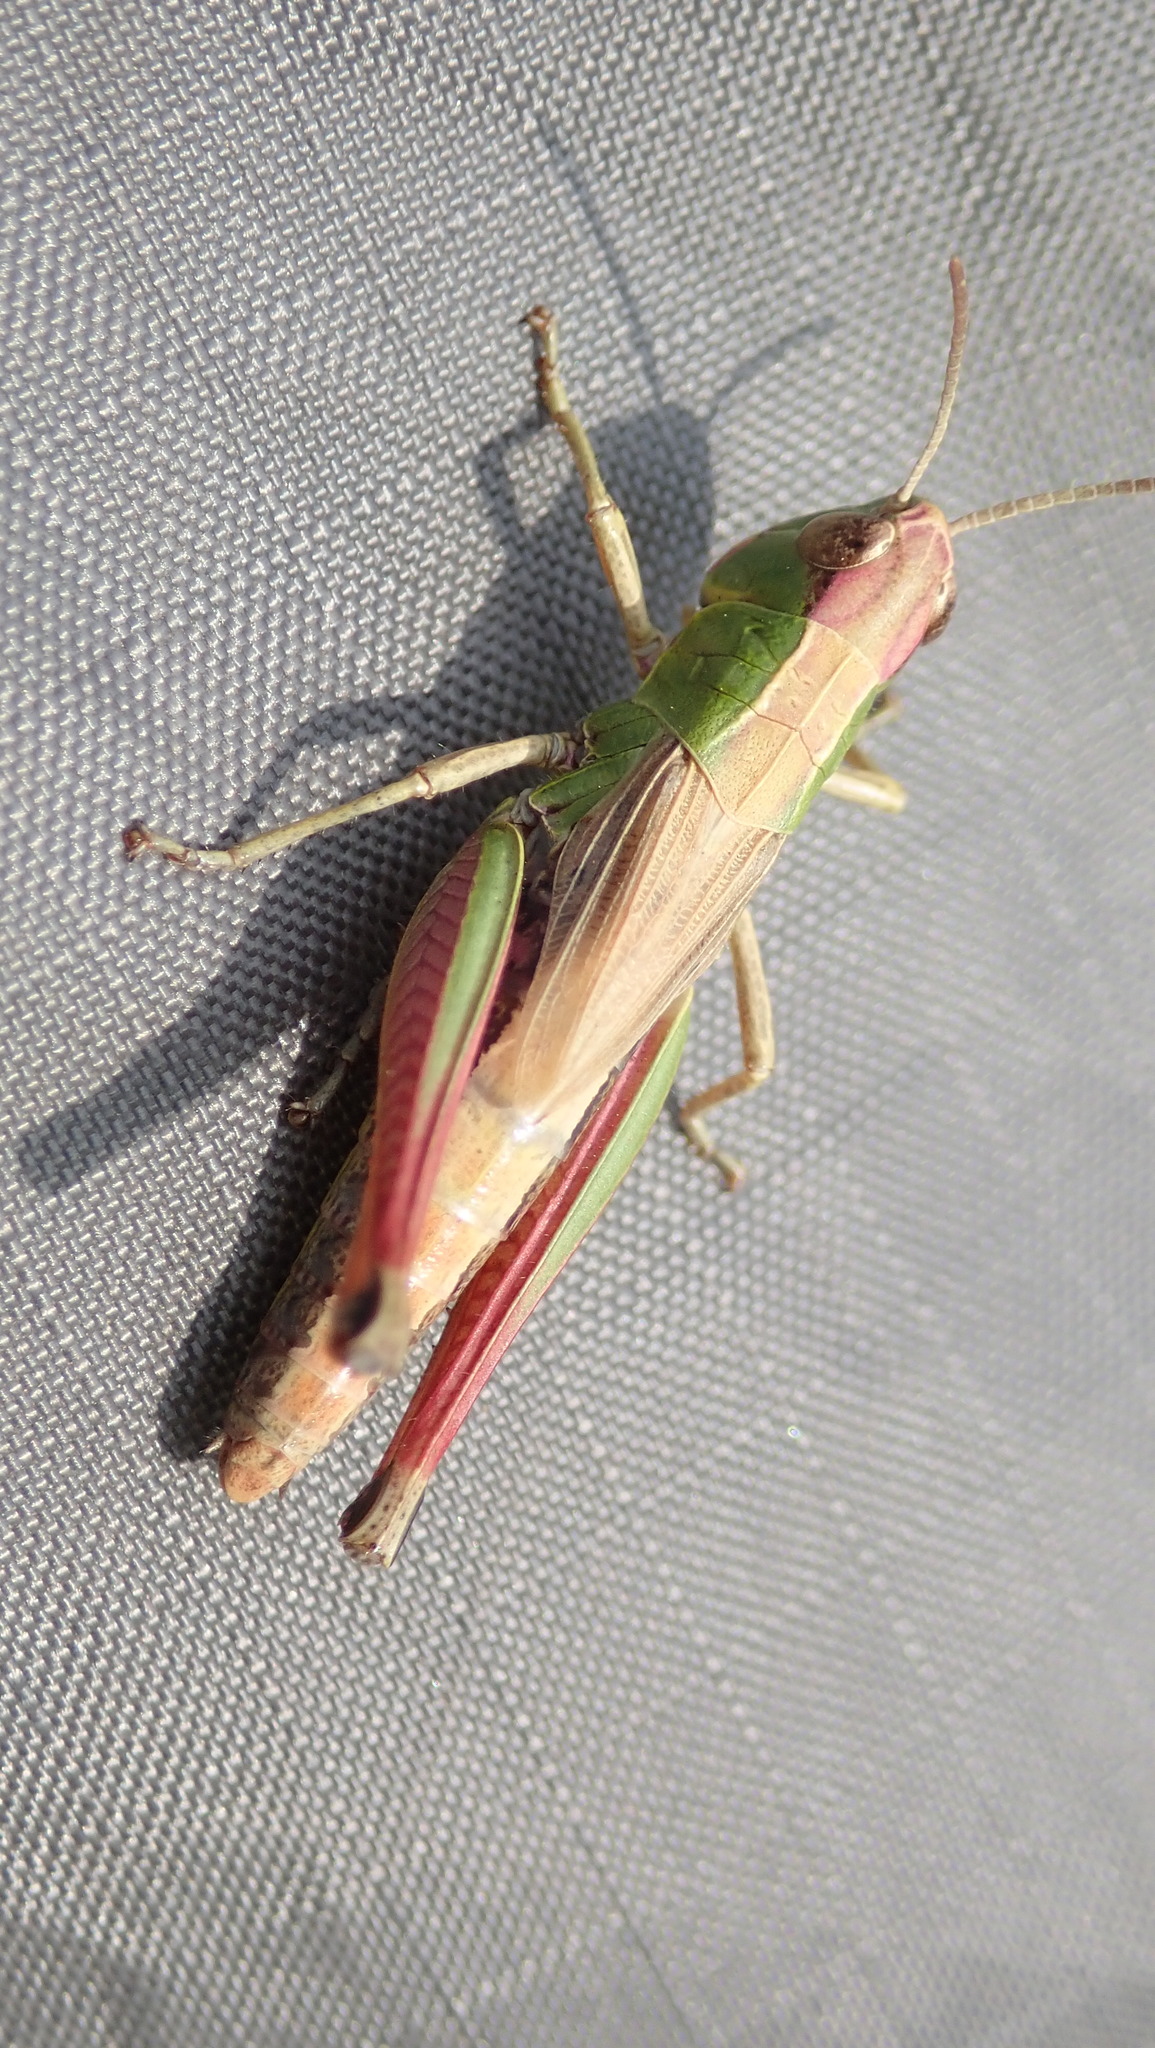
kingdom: Animalia
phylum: Arthropoda
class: Insecta
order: Orthoptera
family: Acrididae
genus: Pseudochorthippus
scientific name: Pseudochorthippus parallelus
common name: Meadow grasshopper
